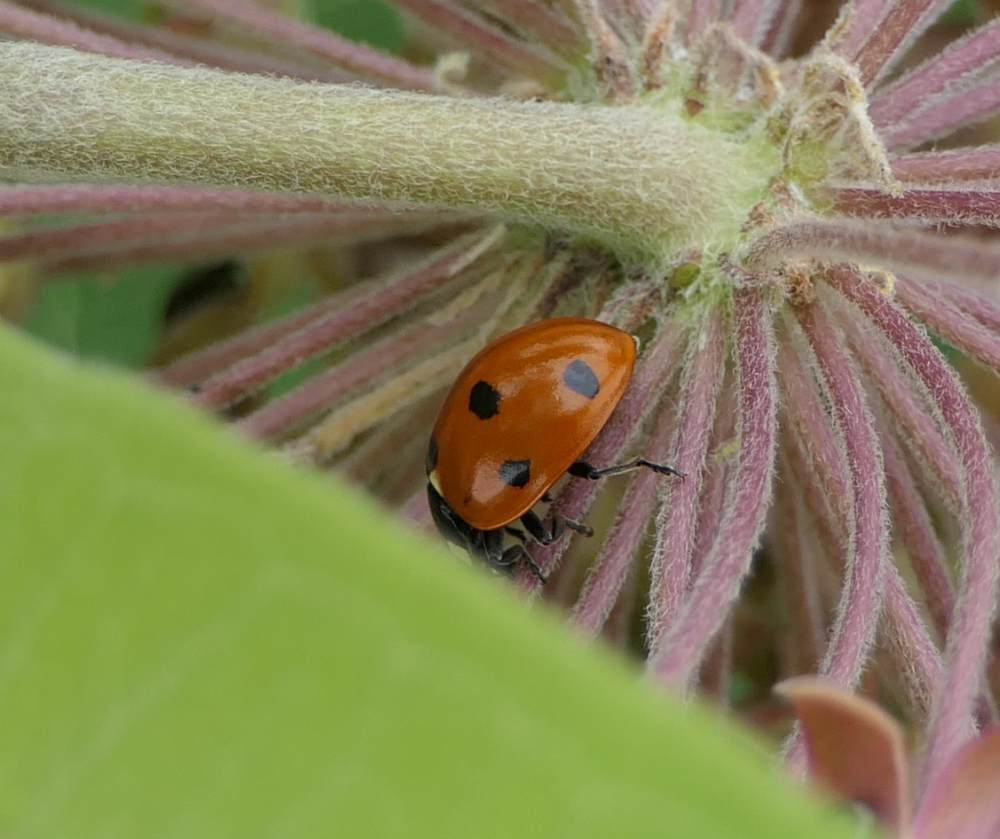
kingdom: Animalia
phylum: Arthropoda
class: Insecta
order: Coleoptera
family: Coccinellidae
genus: Coccinella
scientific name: Coccinella septempunctata
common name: Sevenspotted lady beetle
